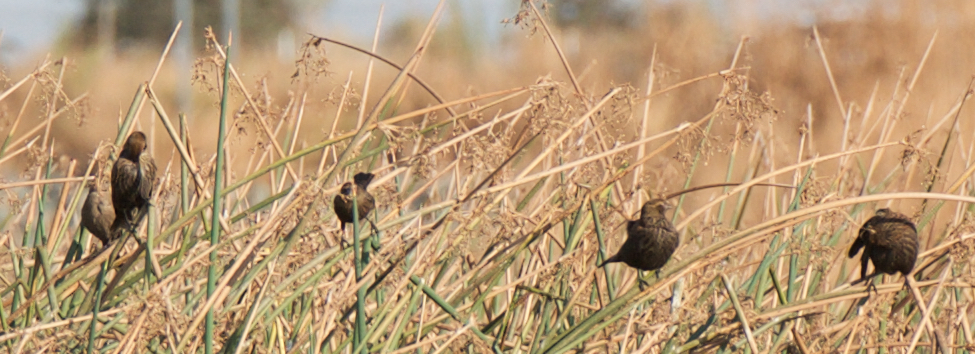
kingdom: Animalia
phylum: Chordata
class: Aves
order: Passeriformes
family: Icteridae
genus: Agelaius
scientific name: Agelaius phoeniceus
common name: Red-winged blackbird
